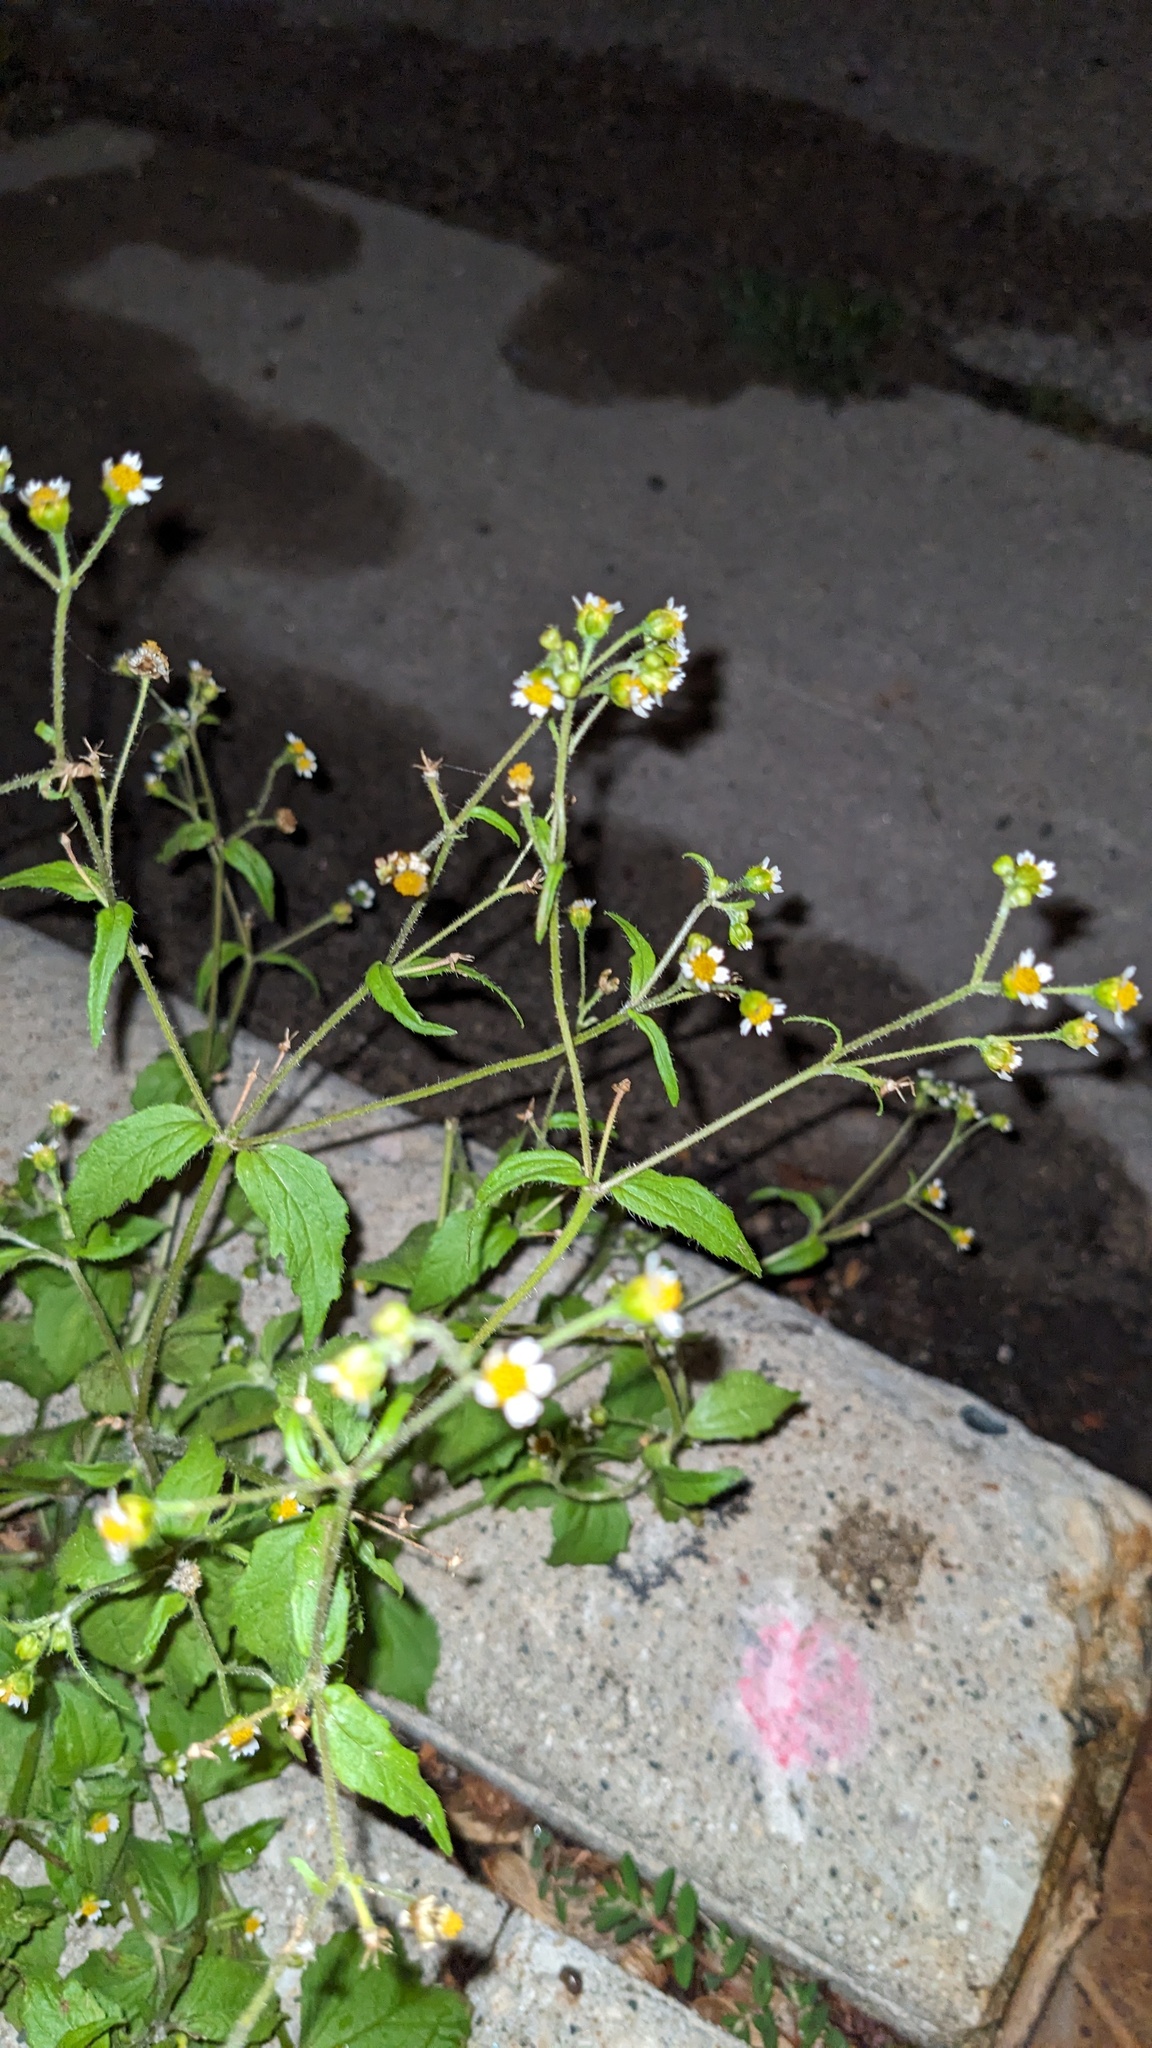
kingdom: Plantae
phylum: Tracheophyta
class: Magnoliopsida
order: Asterales
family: Asteraceae
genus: Galinsoga
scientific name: Galinsoga quadriradiata
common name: Shaggy soldier
